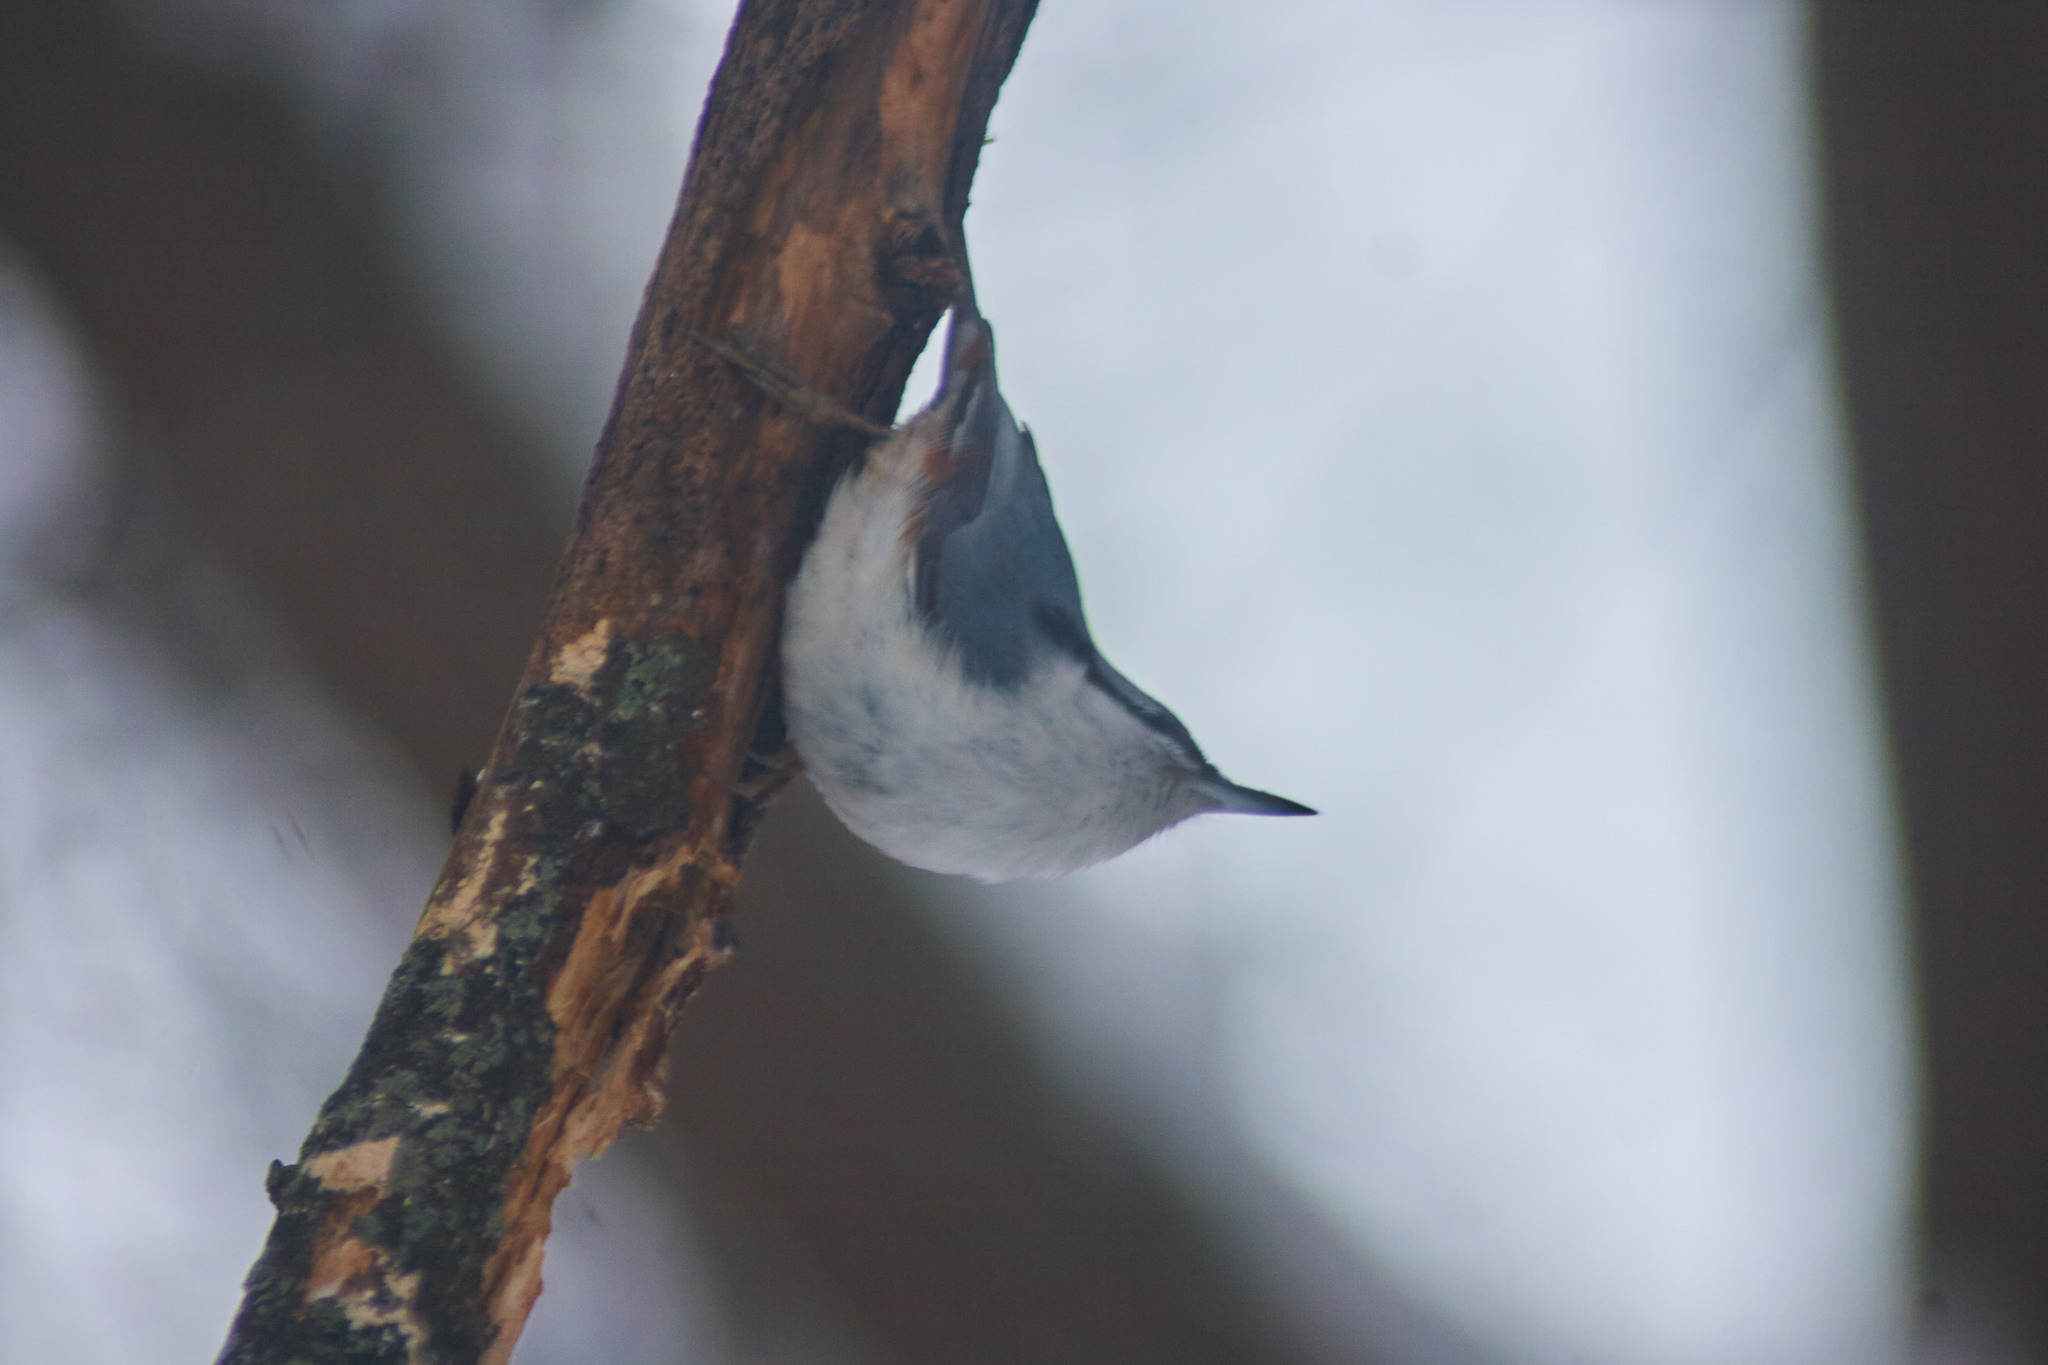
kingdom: Animalia
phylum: Chordata
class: Aves
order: Passeriformes
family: Sittidae
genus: Sitta
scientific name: Sitta europaea
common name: Eurasian nuthatch
